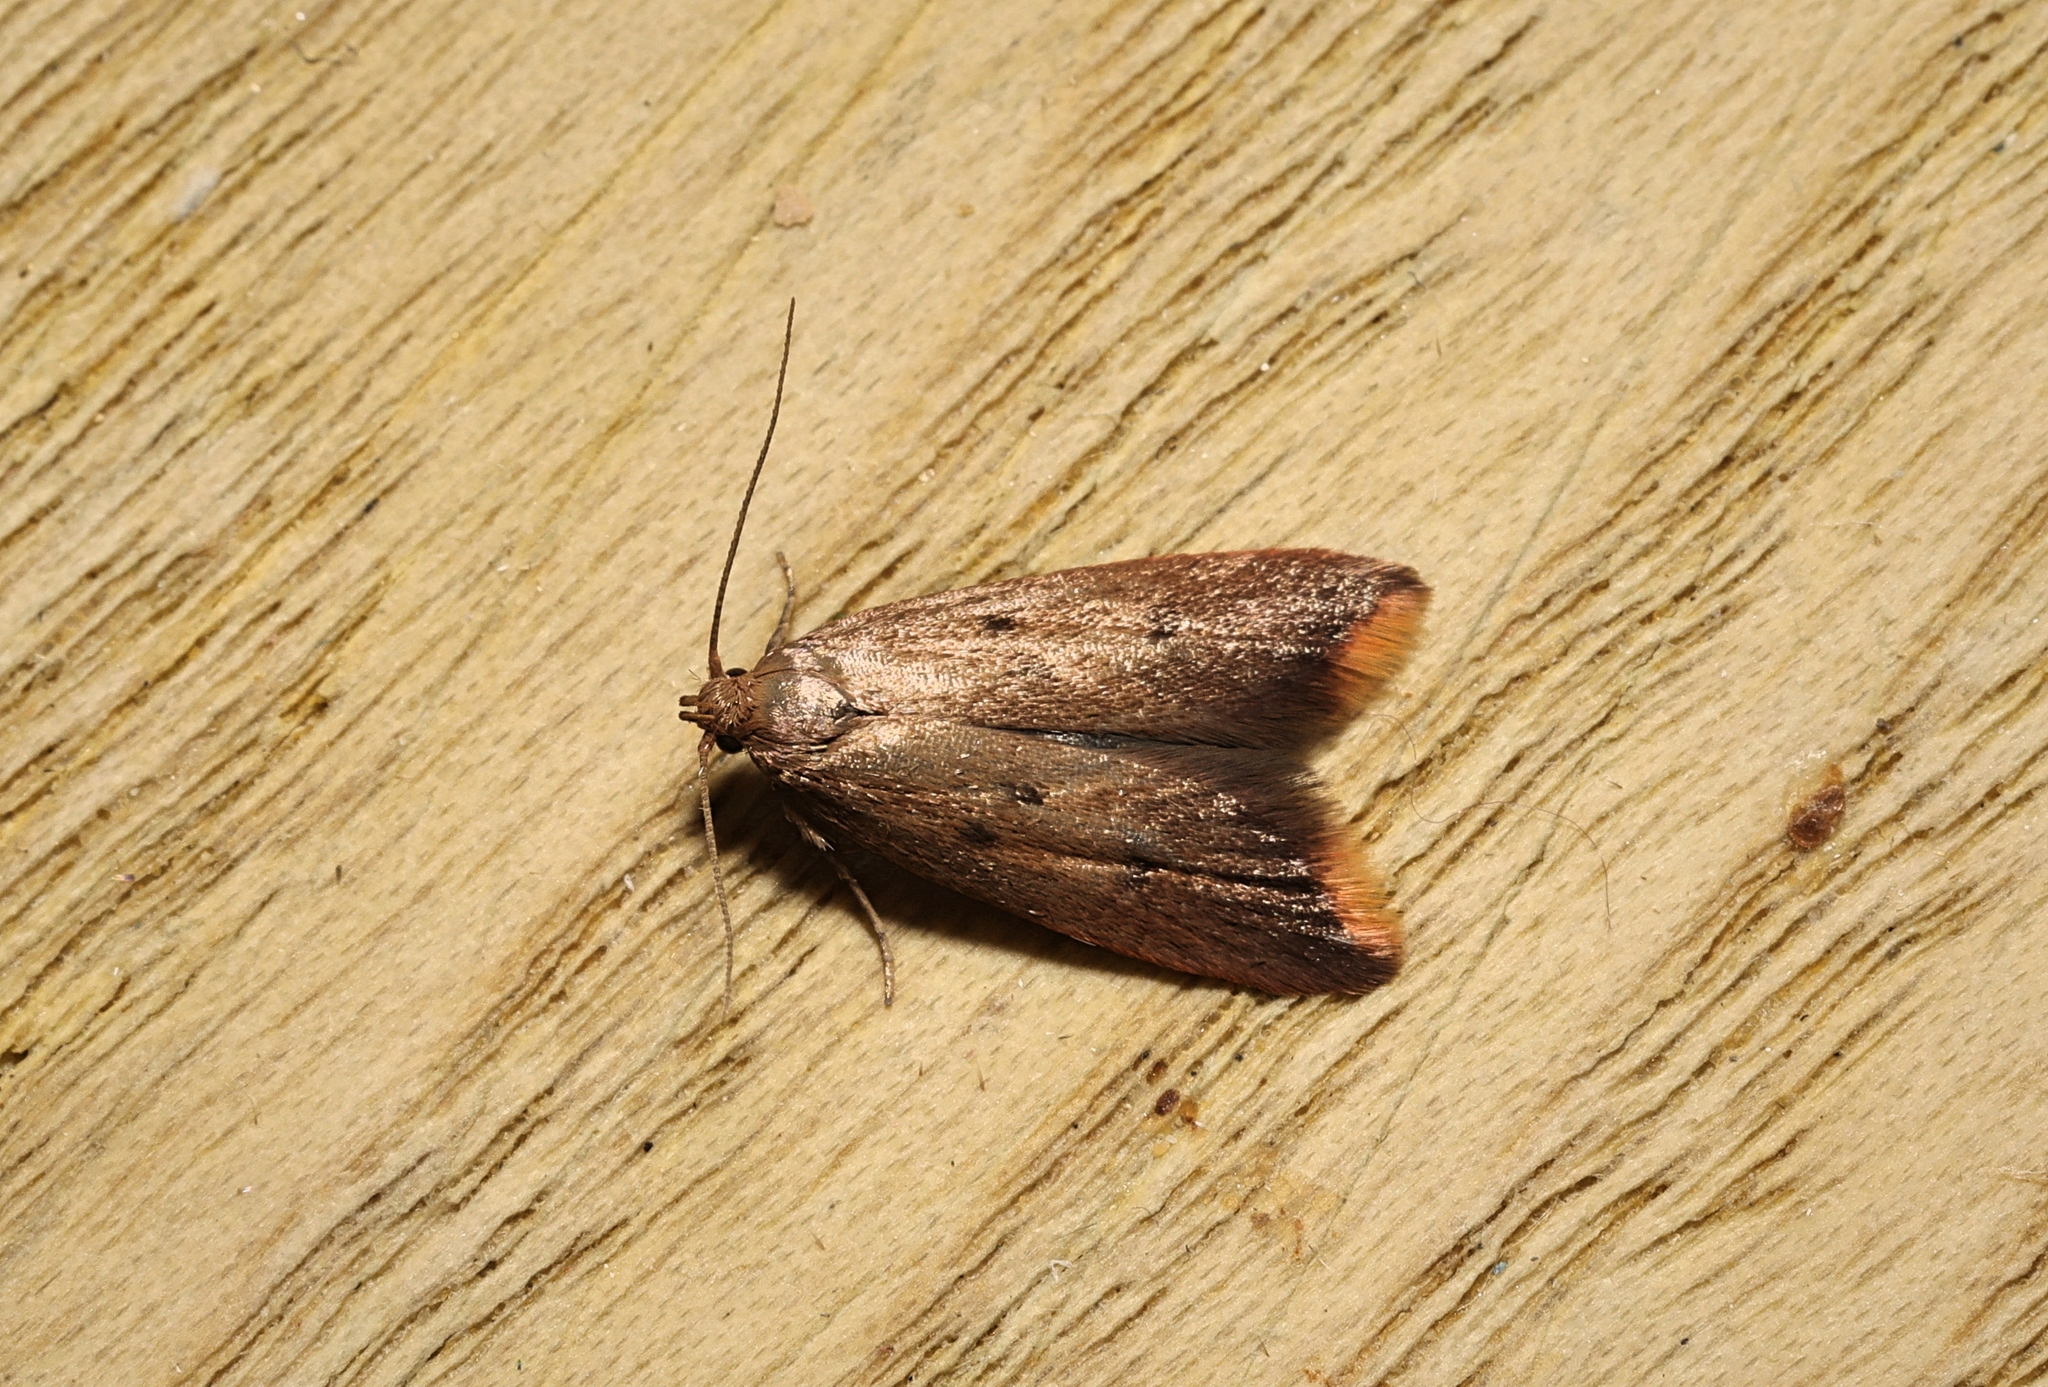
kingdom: Animalia
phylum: Arthropoda
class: Insecta
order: Lepidoptera
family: Oecophoridae
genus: Tachystola
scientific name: Tachystola acroxantha
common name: Ruddy streak
